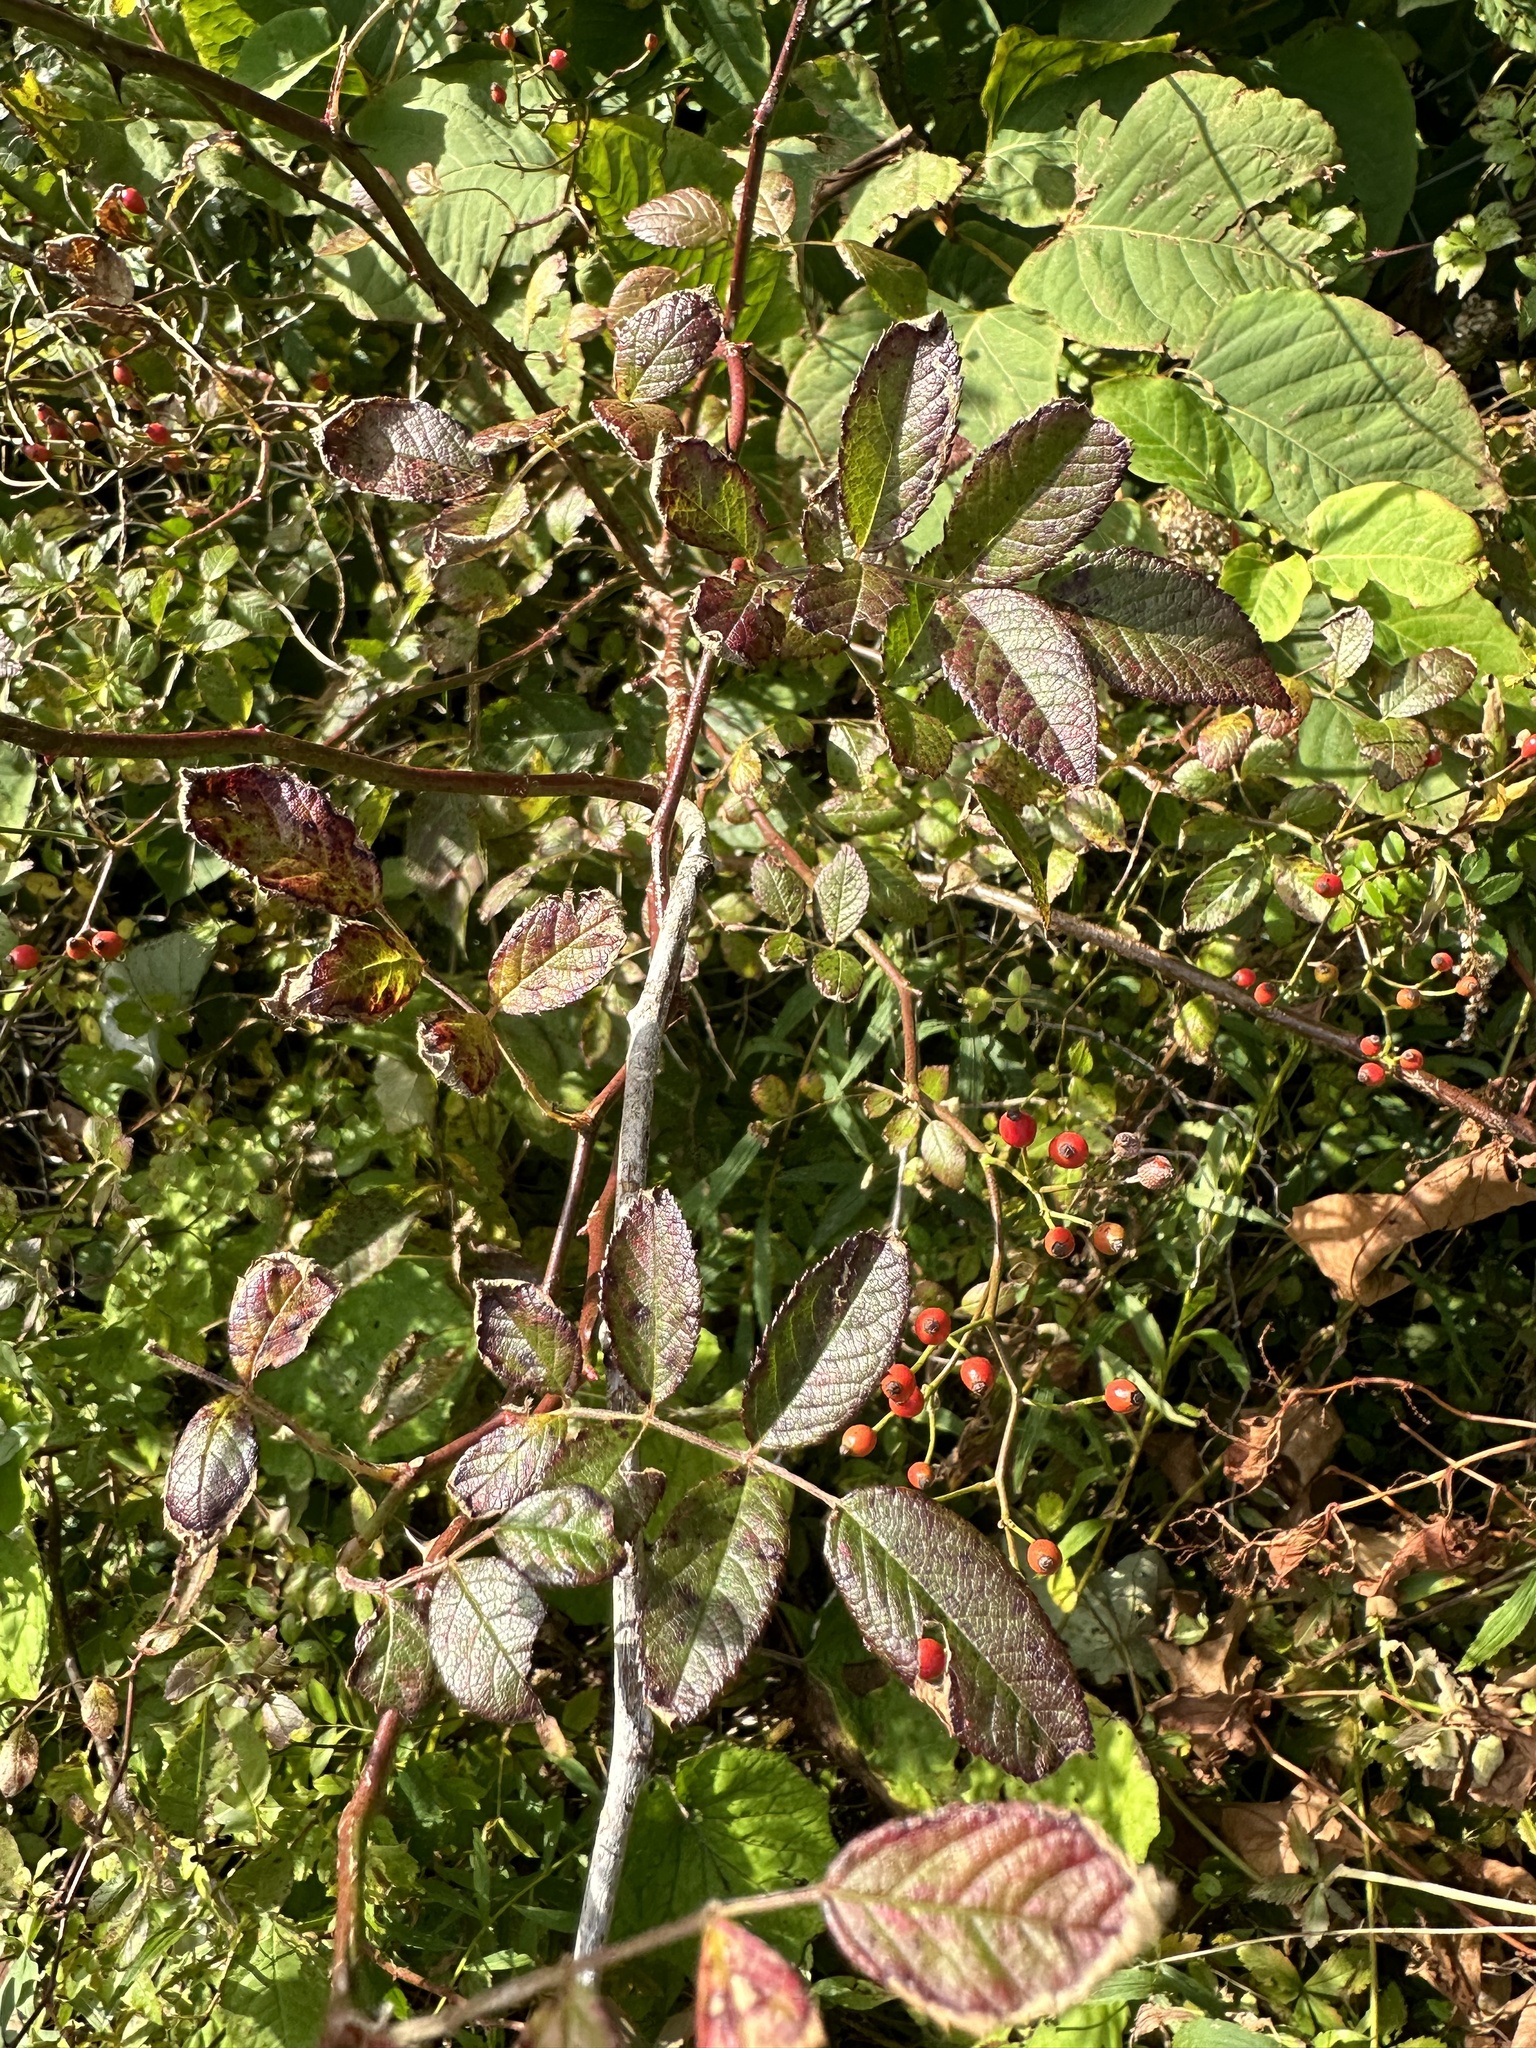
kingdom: Plantae
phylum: Tracheophyta
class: Magnoliopsida
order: Rosales
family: Rosaceae
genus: Rosa
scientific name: Rosa multiflora
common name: Multiflora rose
